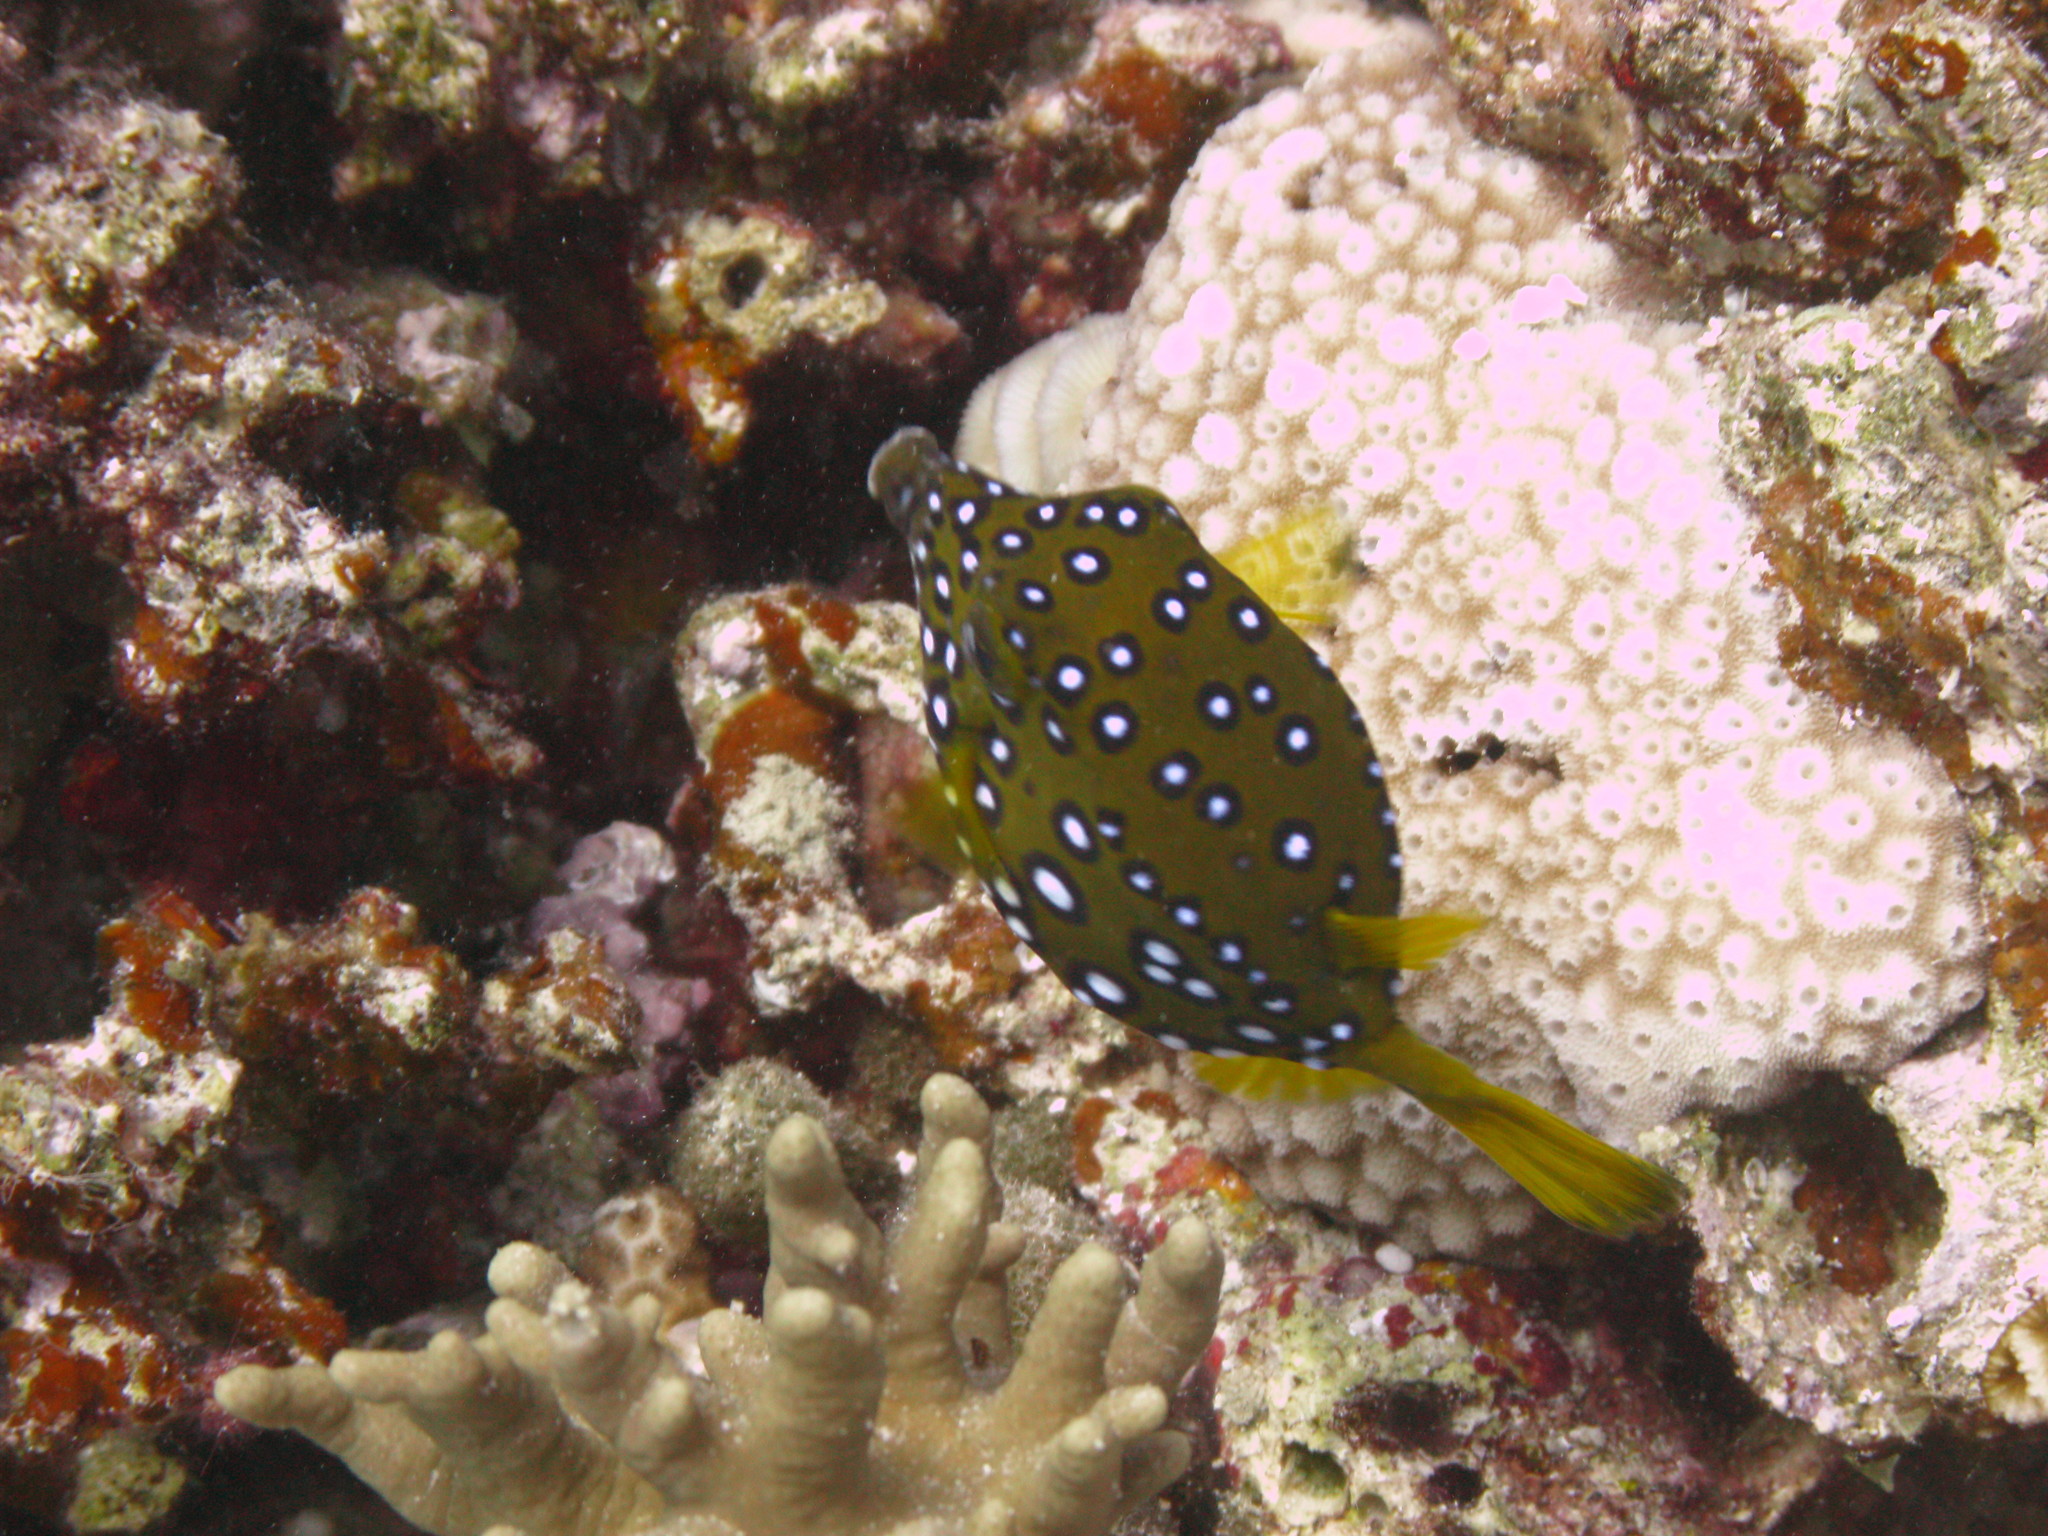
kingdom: Animalia
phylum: Chordata
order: Tetraodontiformes
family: Ostraciidae
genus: Ostracion
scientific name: Ostracion cubicus
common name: Cube trunkfish
